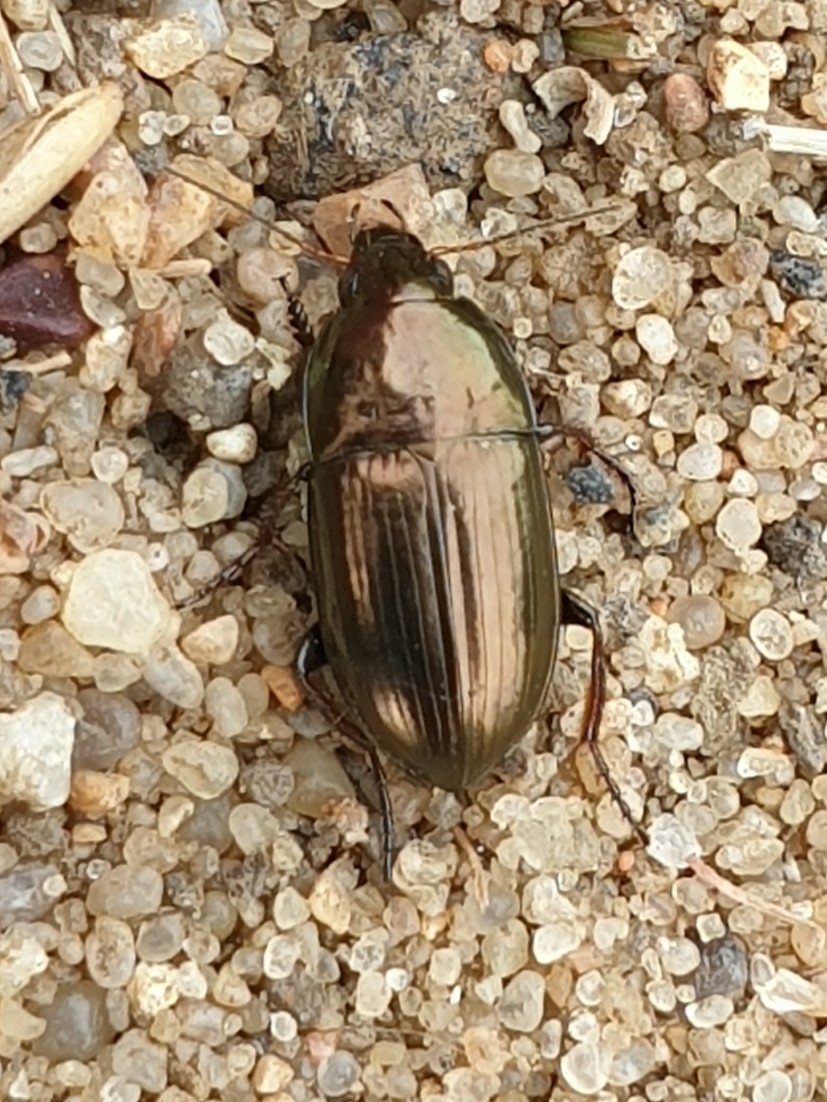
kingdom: Animalia
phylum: Arthropoda
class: Insecta
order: Coleoptera
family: Carabidae
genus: Amara
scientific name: Amara aenea
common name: Common sun beetle
